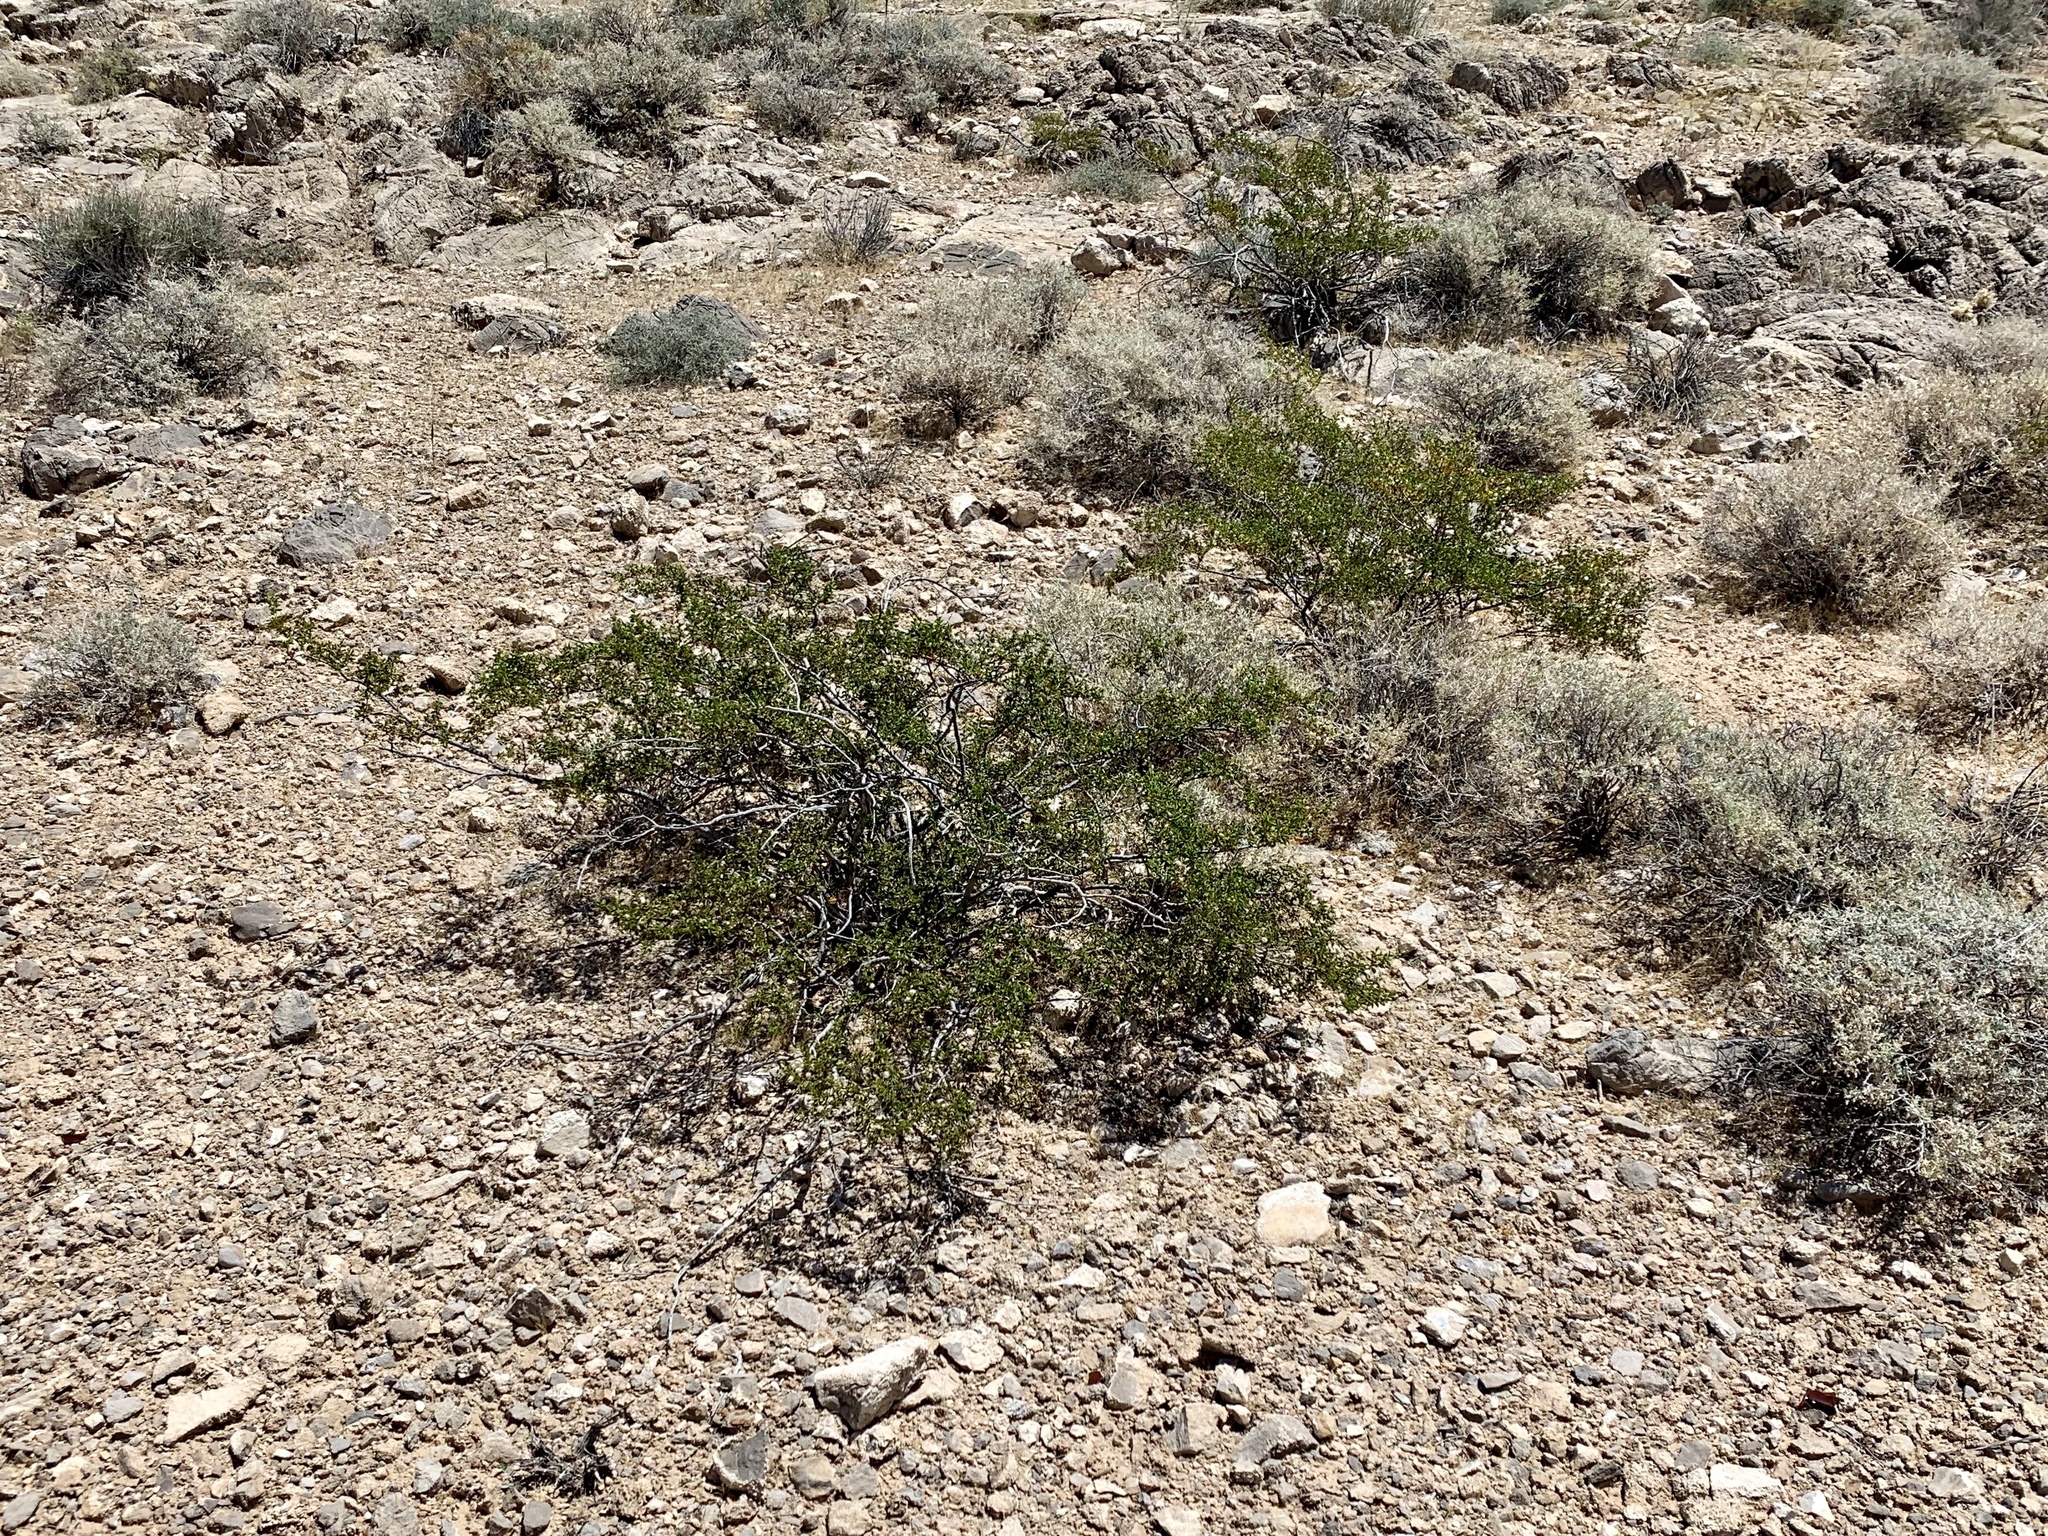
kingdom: Plantae
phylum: Tracheophyta
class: Magnoliopsida
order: Zygophyllales
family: Zygophyllaceae
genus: Larrea
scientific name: Larrea tridentata
